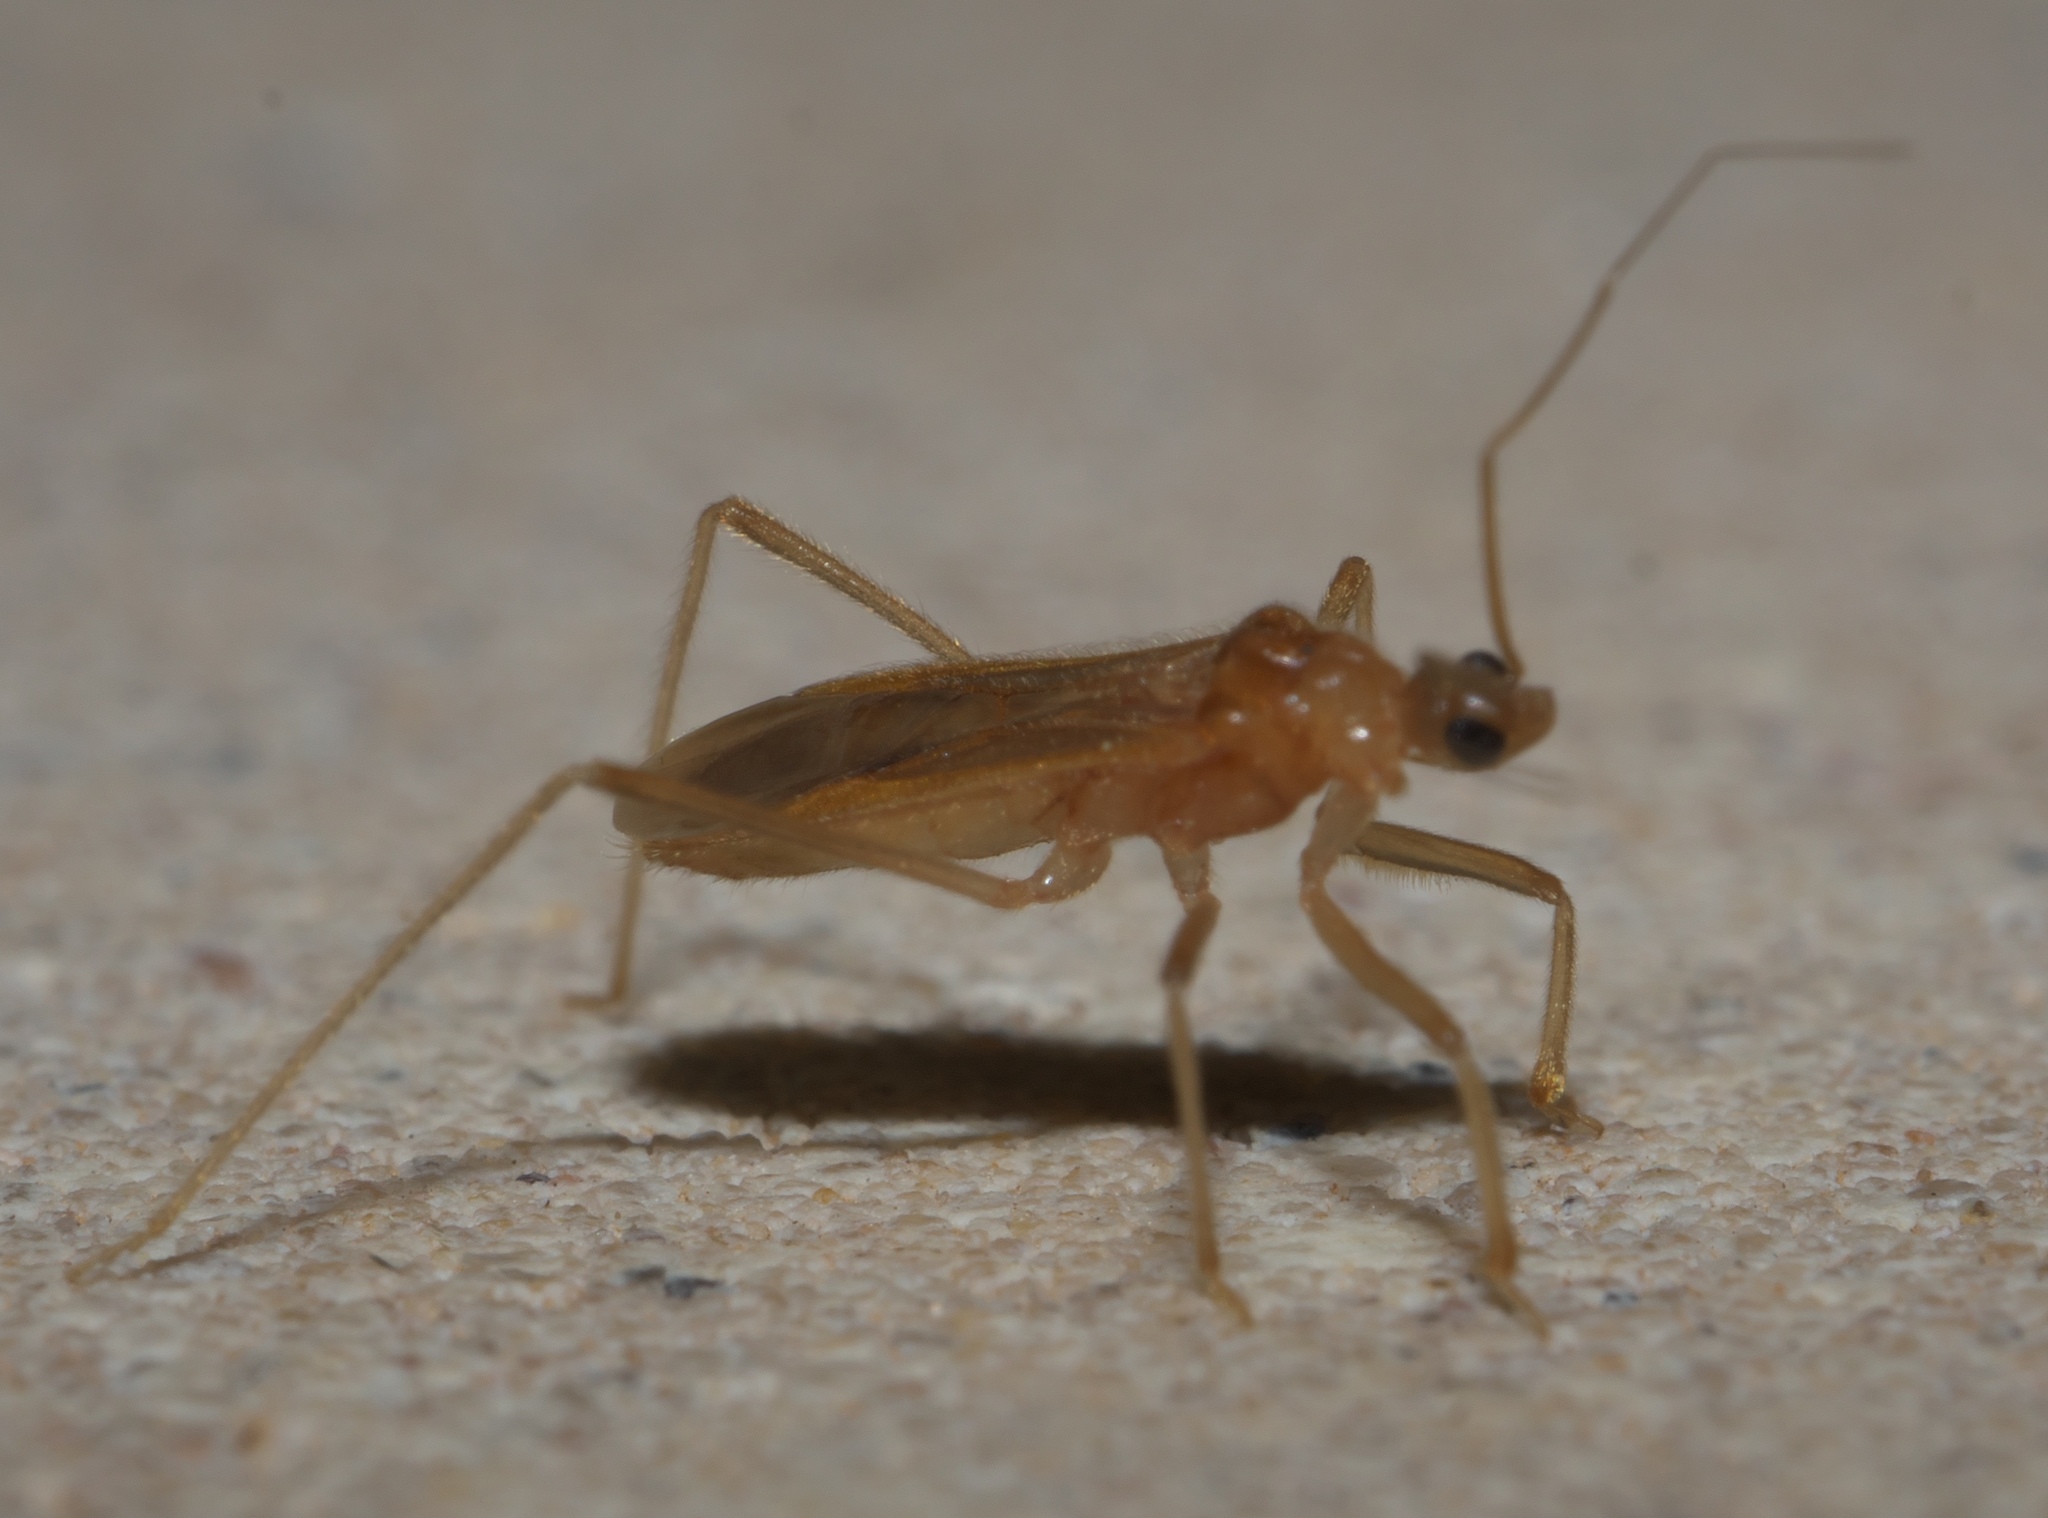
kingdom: Animalia
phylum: Arthropoda
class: Insecta
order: Hemiptera
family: Reduviidae
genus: Oncerotrachelus
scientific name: Oncerotrachelus pallidus
